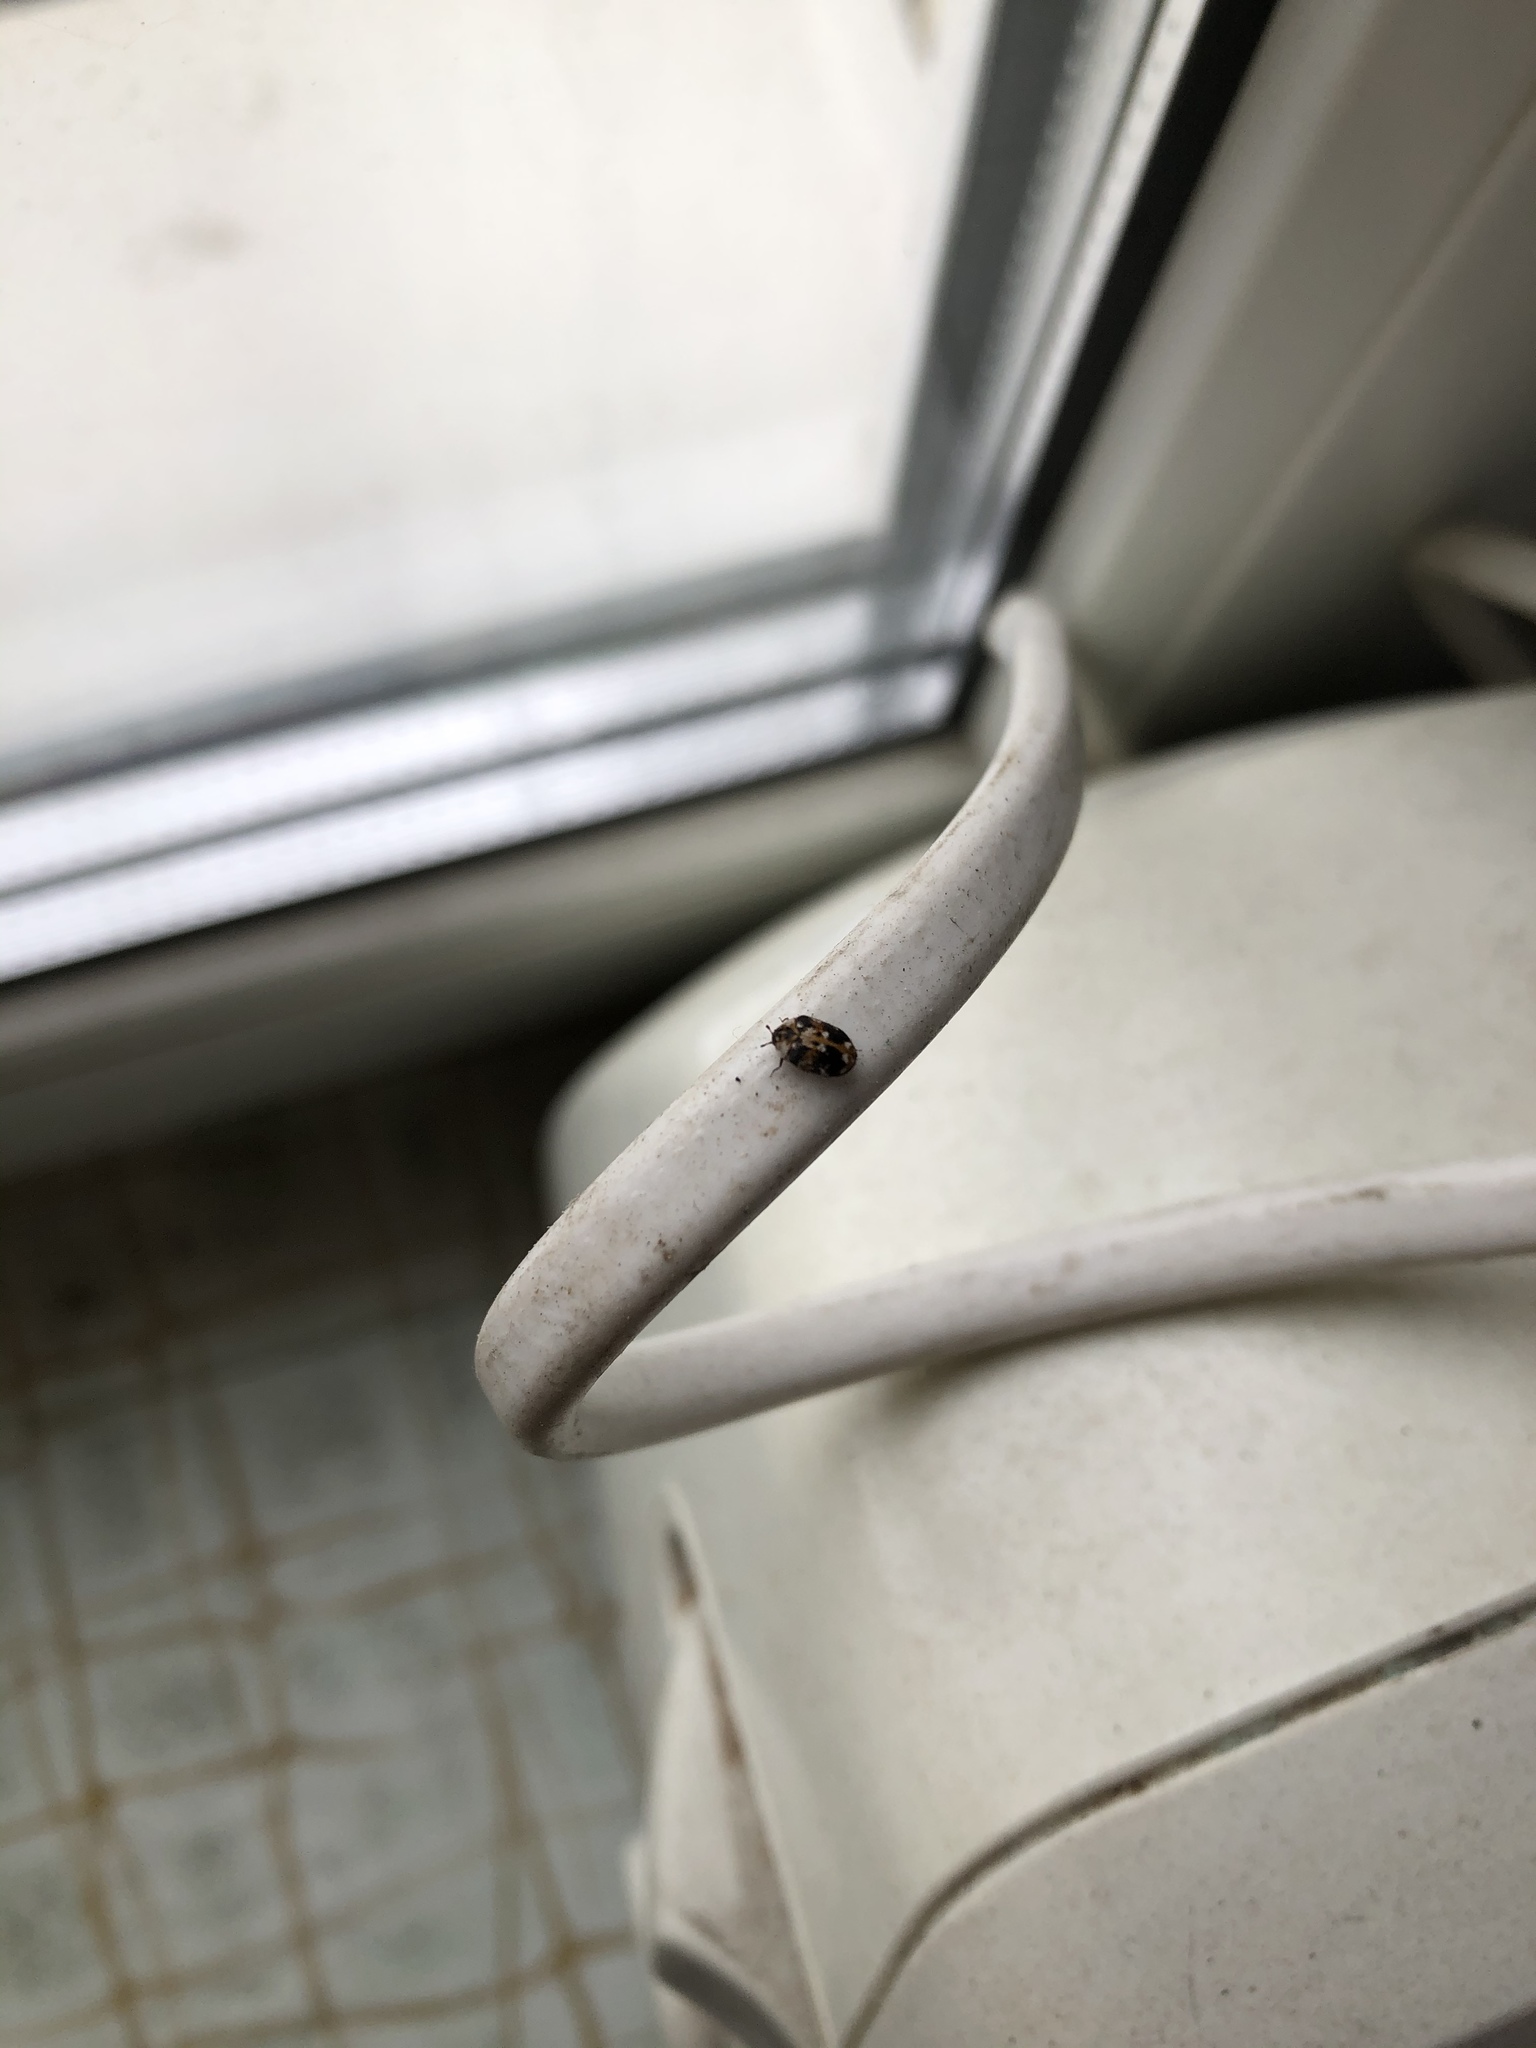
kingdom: Animalia
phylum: Arthropoda
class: Insecta
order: Coleoptera
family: Dermestidae
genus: Anthrenus
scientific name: Anthrenus picturatus
